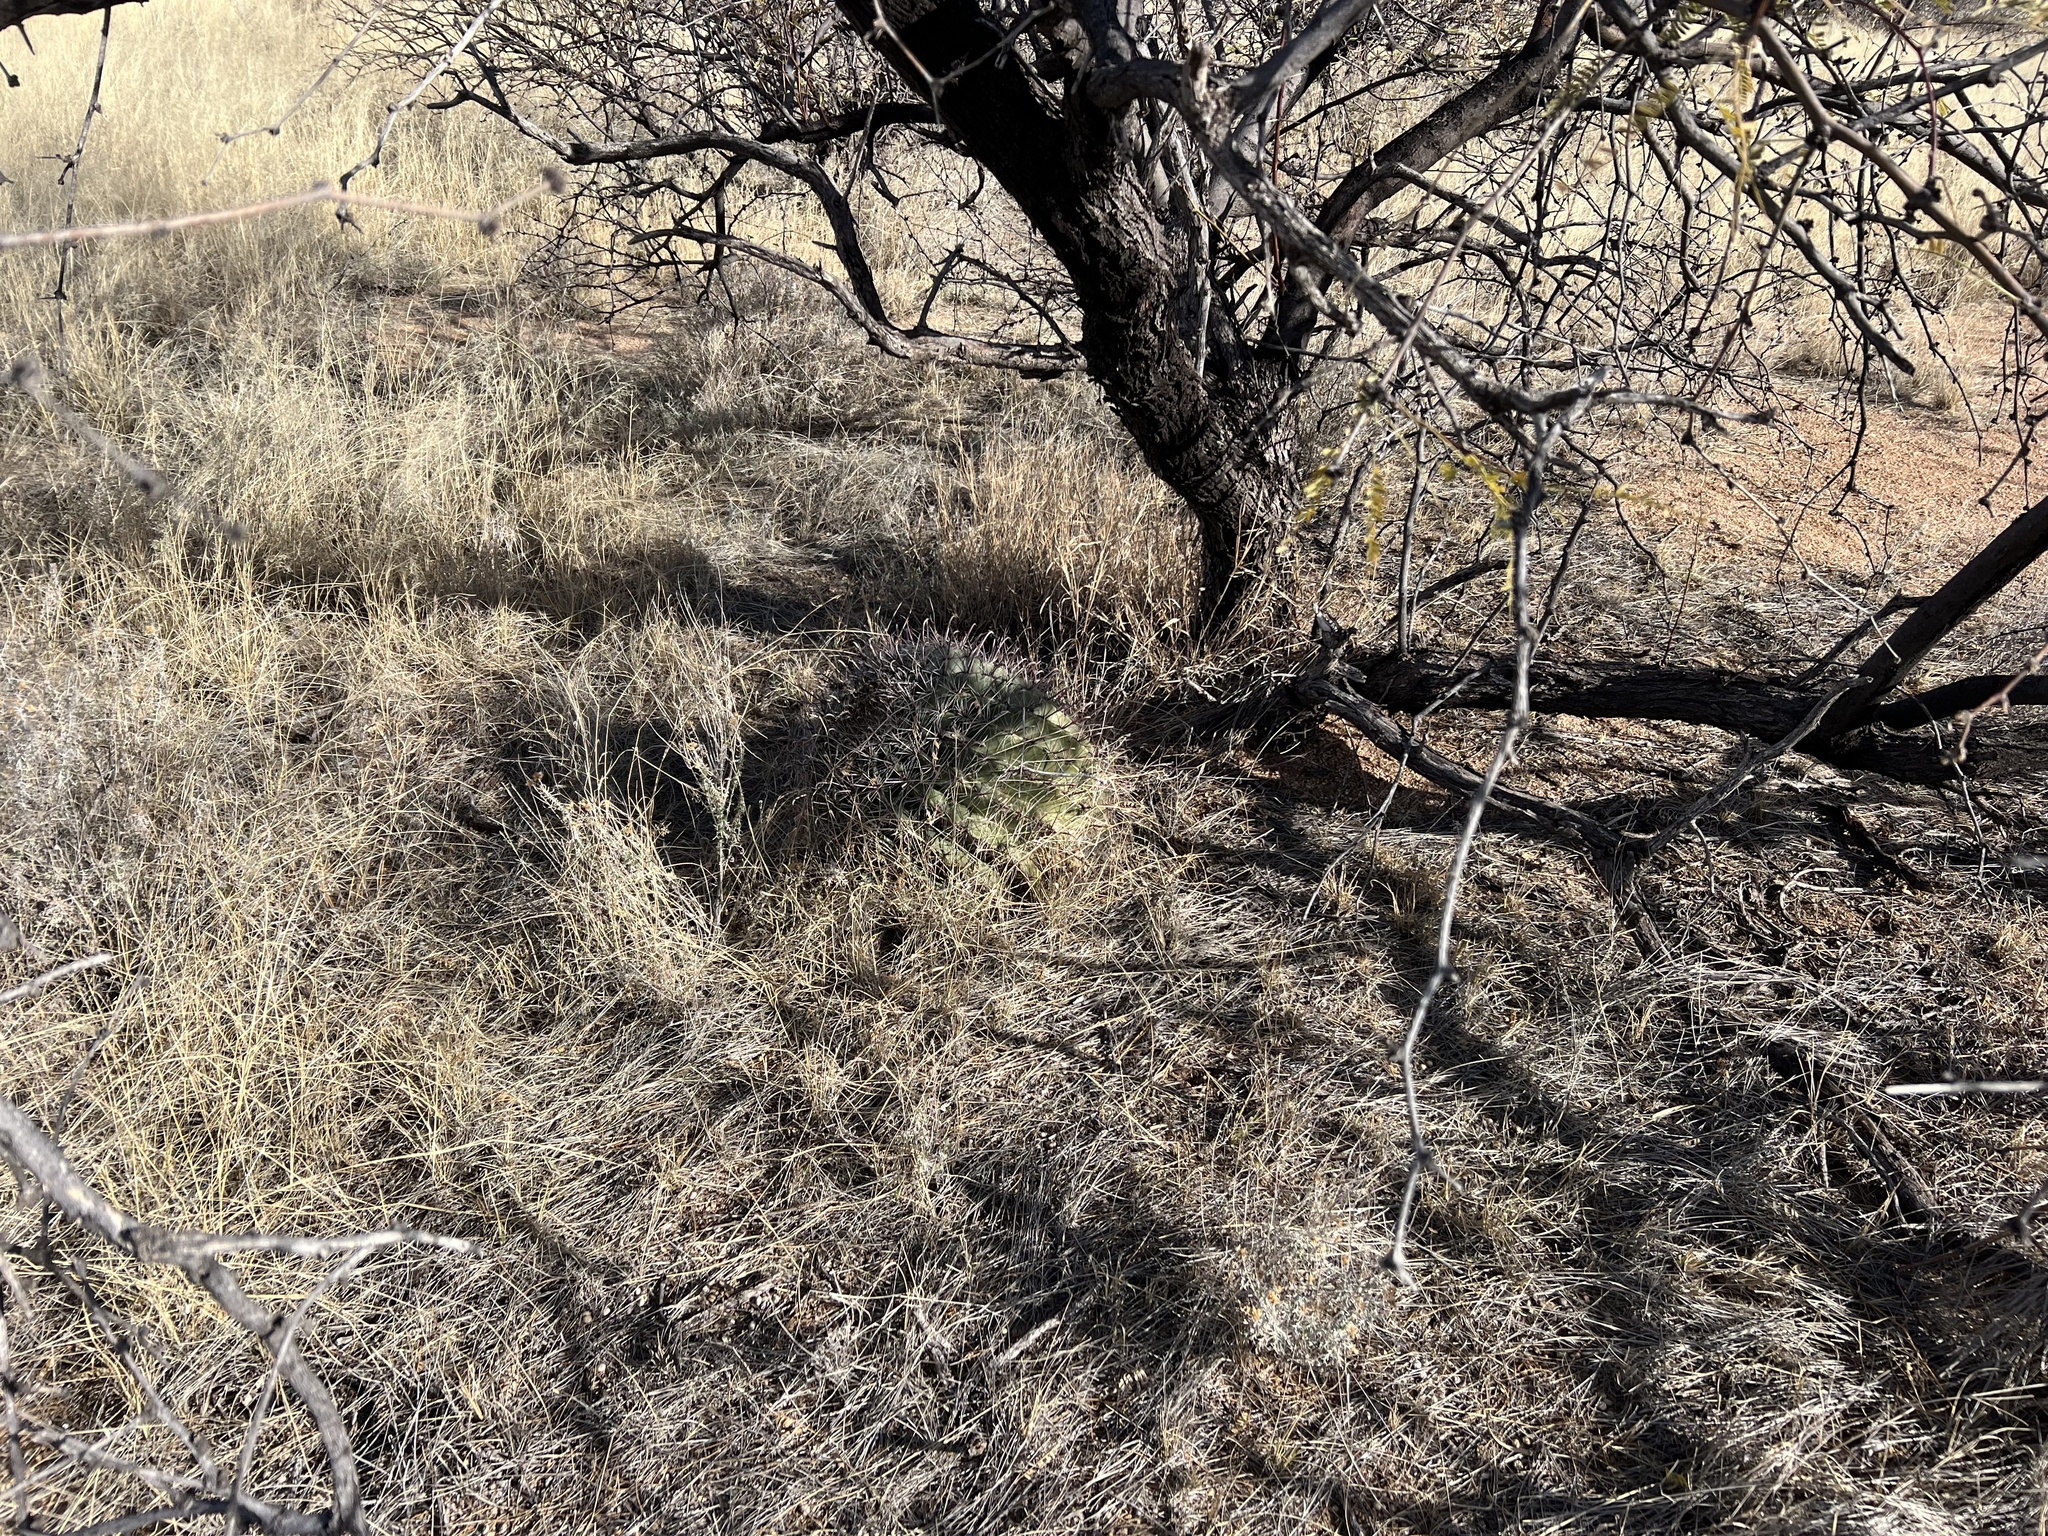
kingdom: Plantae
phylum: Tracheophyta
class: Magnoliopsida
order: Caryophyllales
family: Cactaceae
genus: Ferocactus
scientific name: Ferocactus wislizeni
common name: Candy barrel cactus
